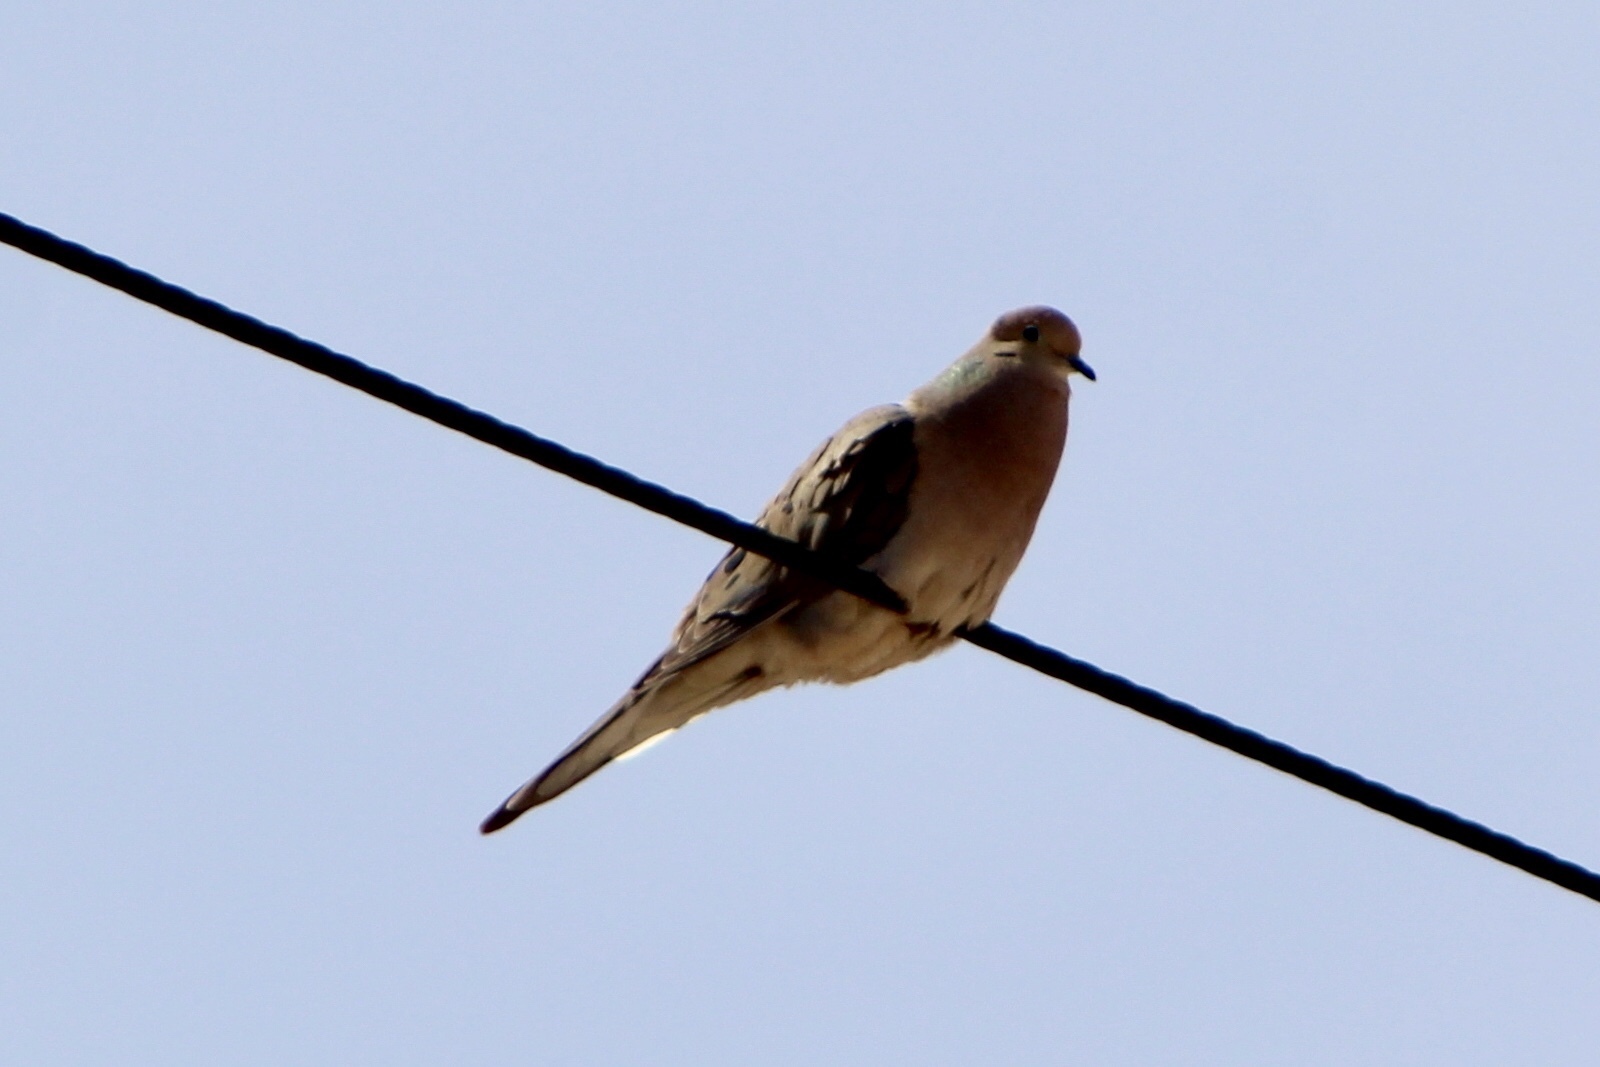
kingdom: Animalia
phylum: Chordata
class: Aves
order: Columbiformes
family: Columbidae
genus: Zenaida
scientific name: Zenaida macroura
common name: Mourning dove
